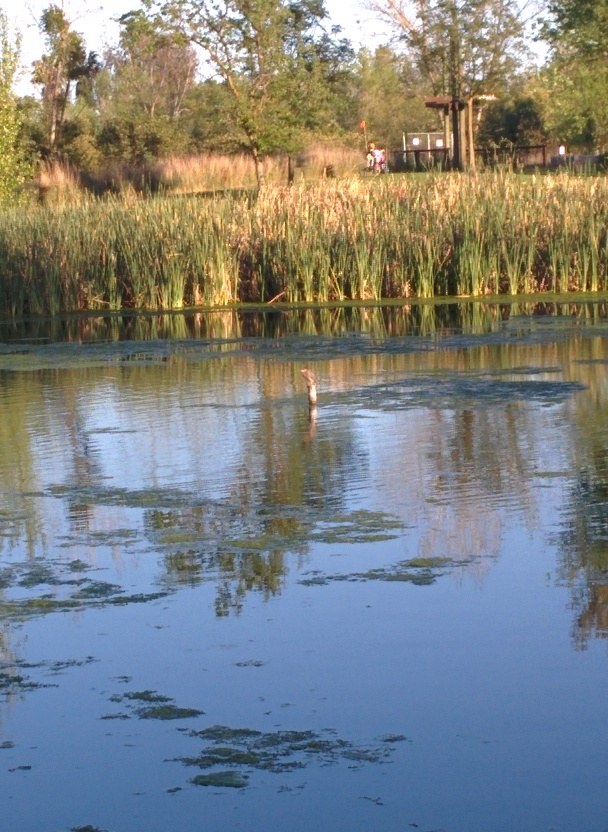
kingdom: Animalia
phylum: Chordata
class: Aves
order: Pelecaniformes
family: Ardeidae
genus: Butorides
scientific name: Butorides virescens
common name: Green heron
